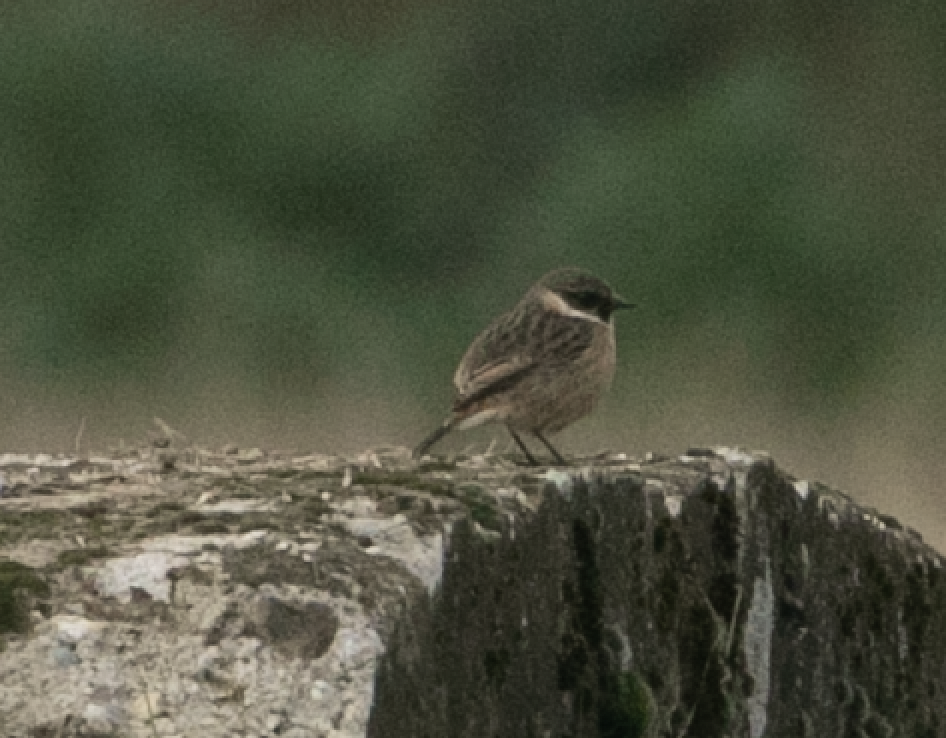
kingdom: Animalia
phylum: Chordata
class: Aves
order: Passeriformes
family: Muscicapidae
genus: Saxicola
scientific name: Saxicola rubicola
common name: European stonechat
